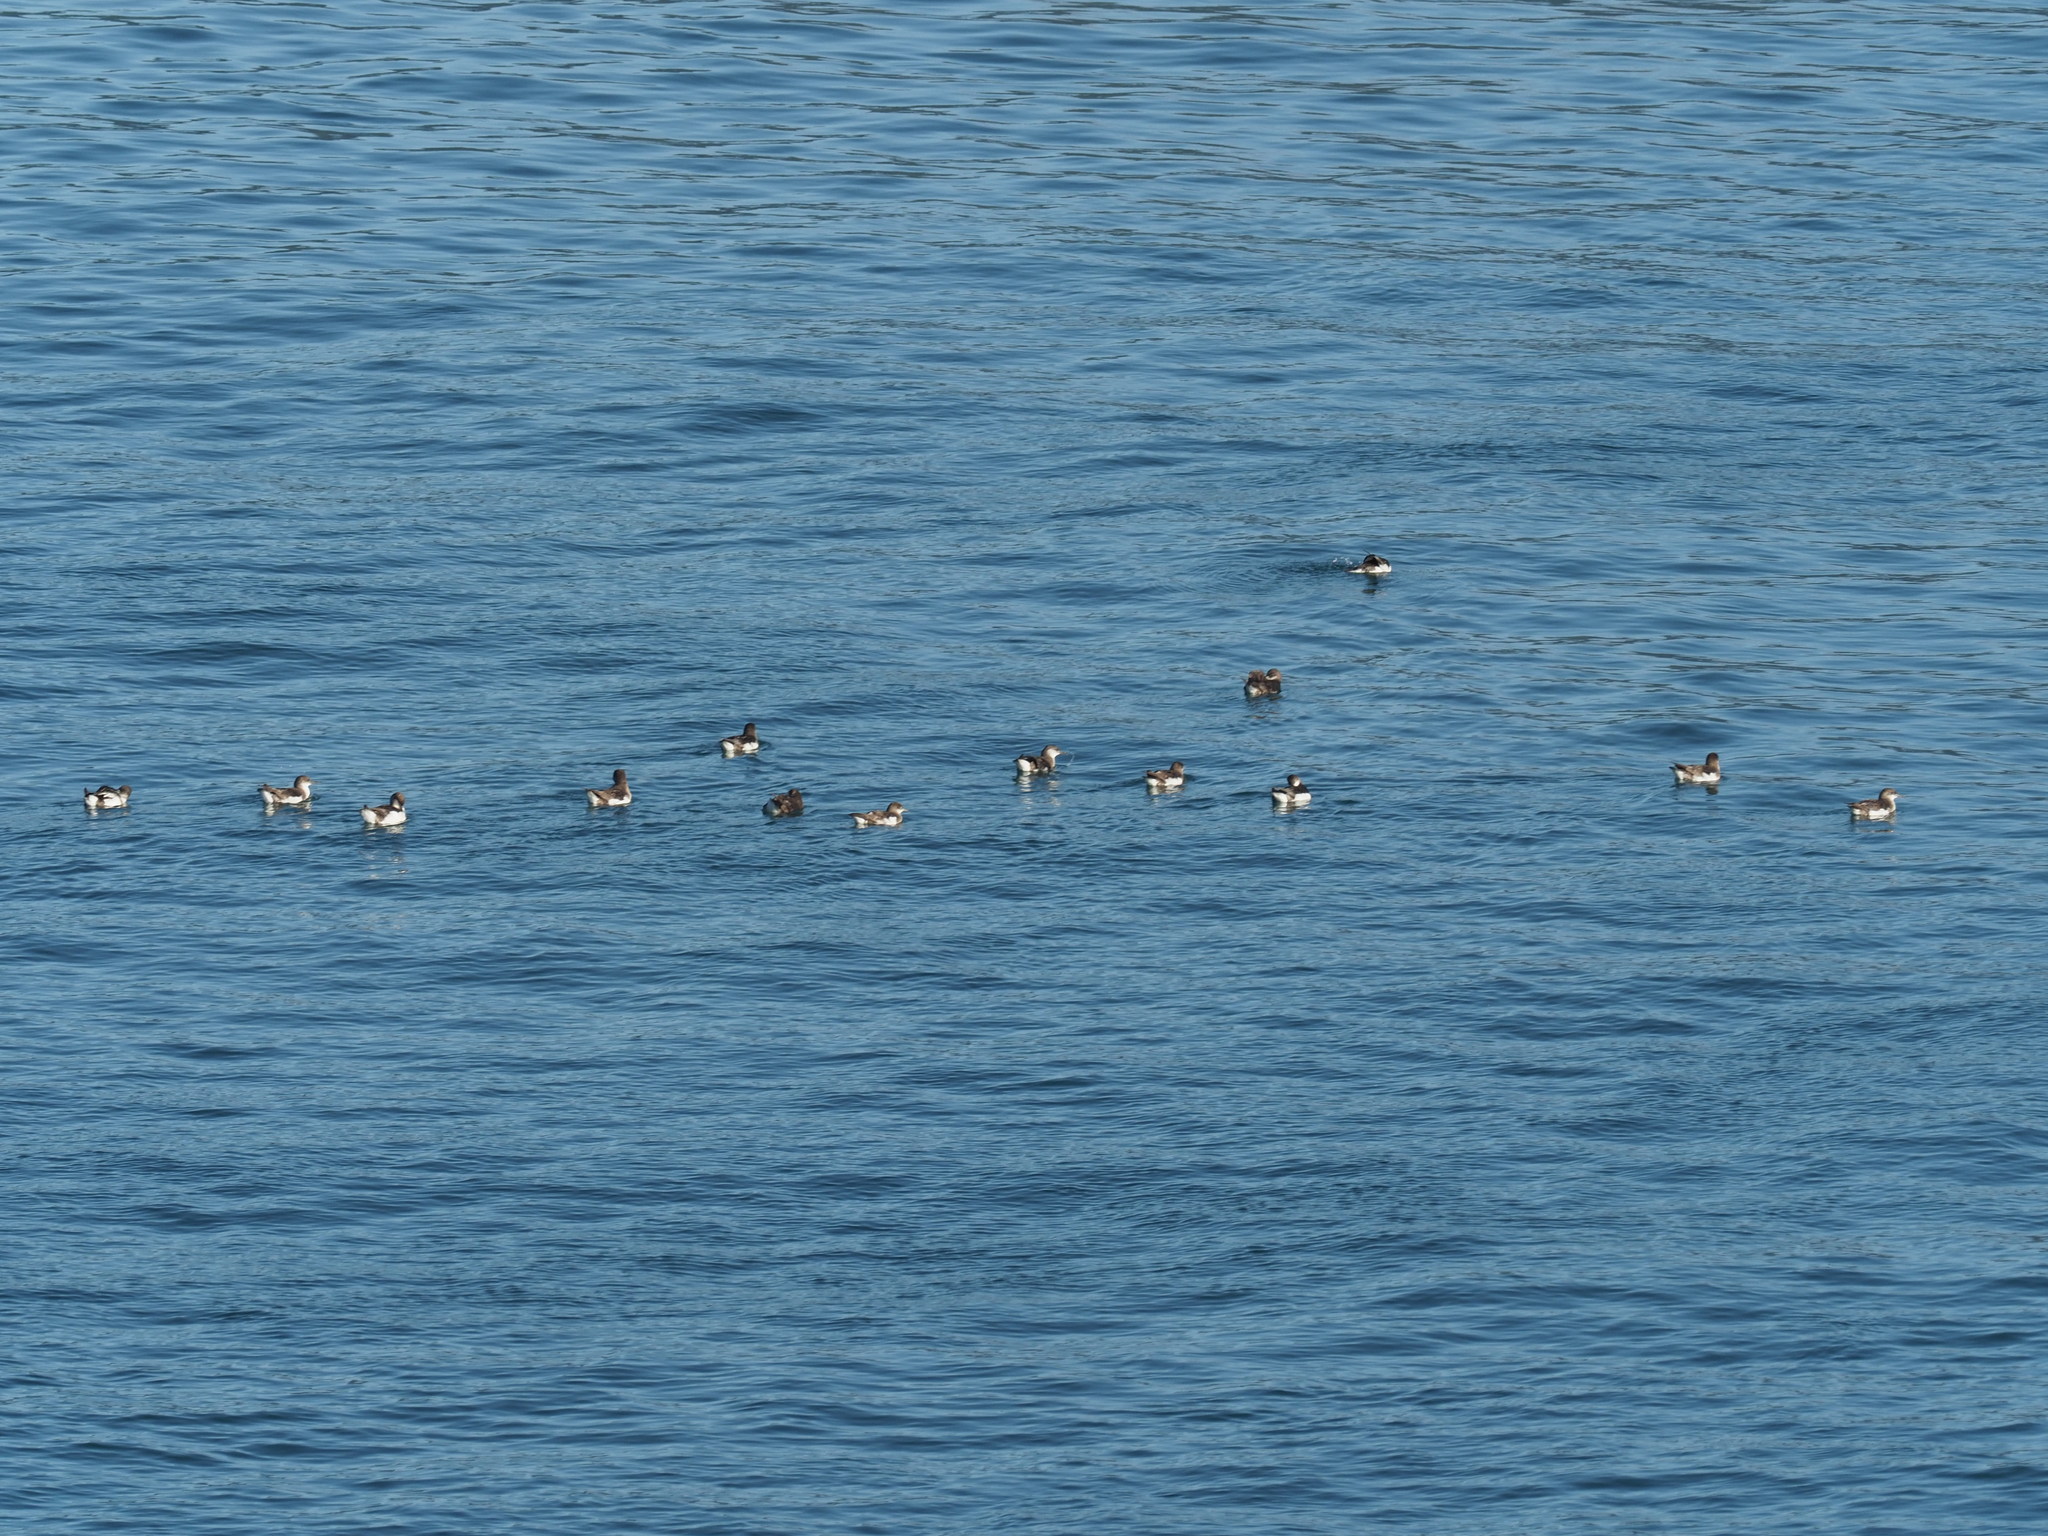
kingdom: Animalia
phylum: Chordata
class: Aves
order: Procellariiformes
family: Procellariidae
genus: Puffinus
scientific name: Puffinus gavia
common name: Fluttering shearwater
